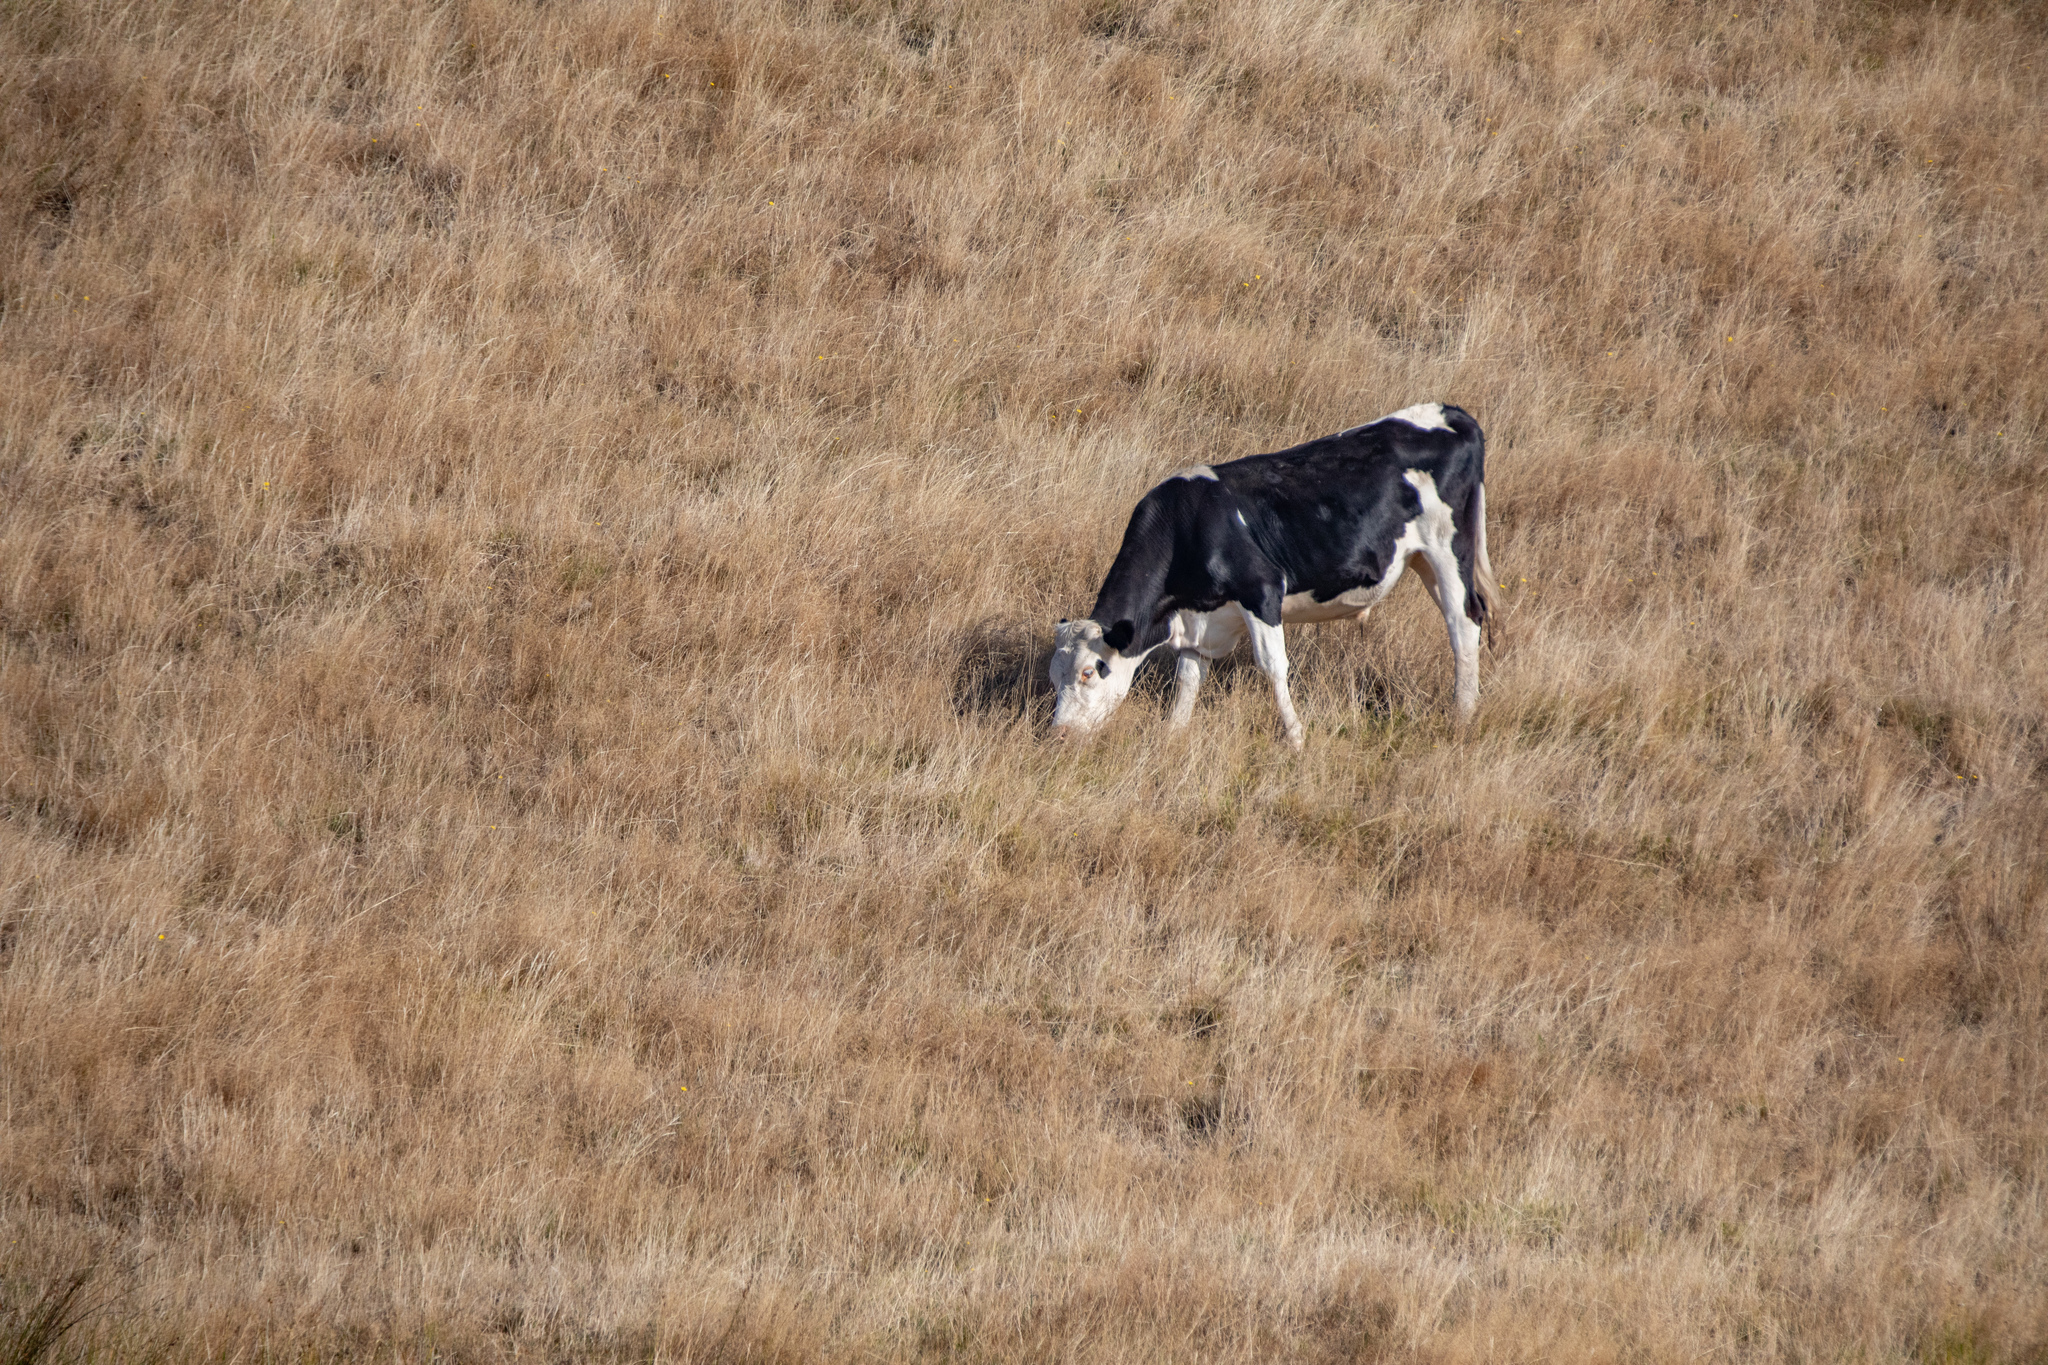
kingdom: Animalia
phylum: Chordata
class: Mammalia
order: Artiodactyla
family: Bovidae
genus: Bos
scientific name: Bos taurus
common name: Domesticated cattle
